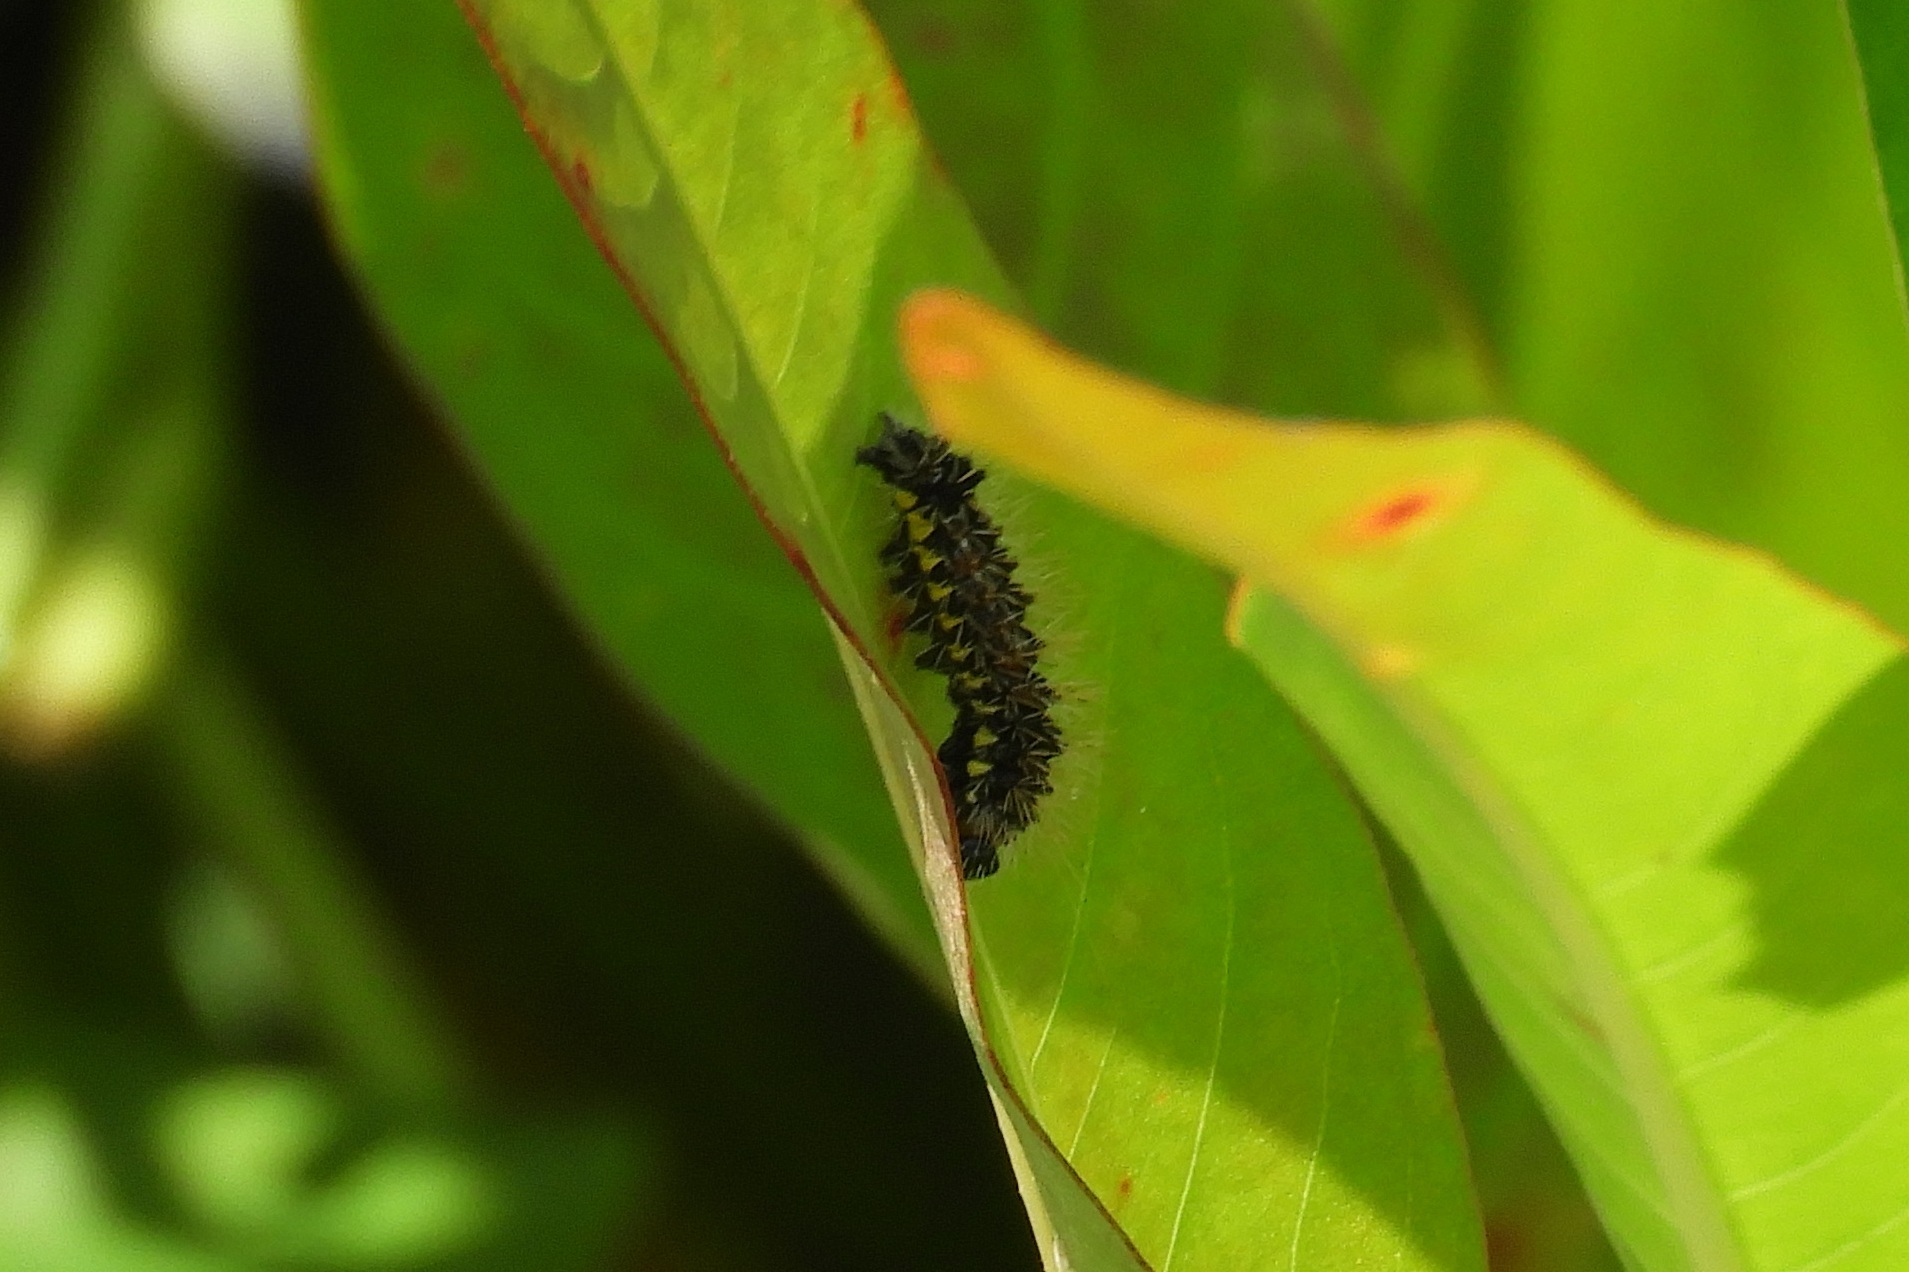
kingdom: Animalia
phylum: Arthropoda
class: Insecta
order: Lepidoptera
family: Noctuidae
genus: Acronicta
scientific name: Acronicta oblinita
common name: Smeared dagger
